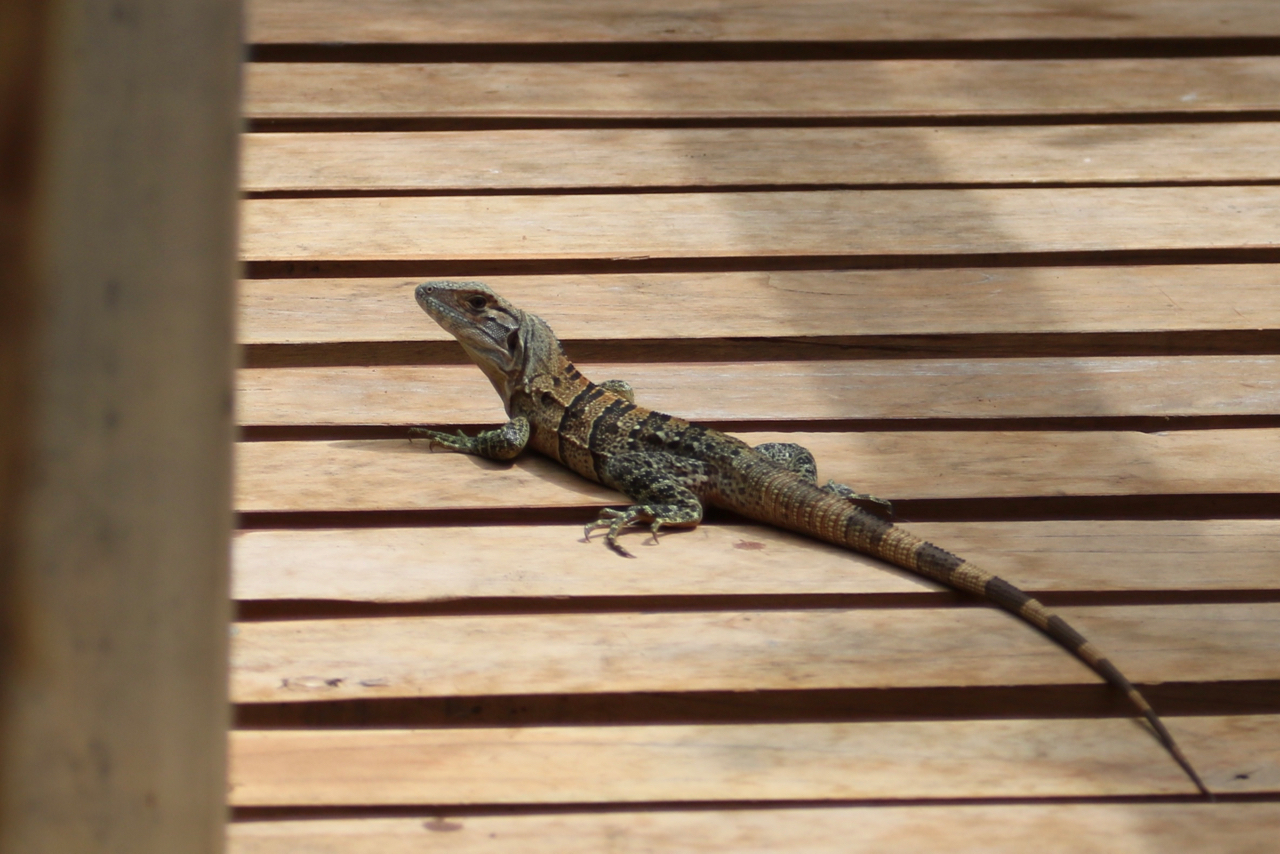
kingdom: Animalia
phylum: Chordata
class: Squamata
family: Iguanidae
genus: Ctenosaura
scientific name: Ctenosaura similis
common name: Black spiny-tailed iguana
